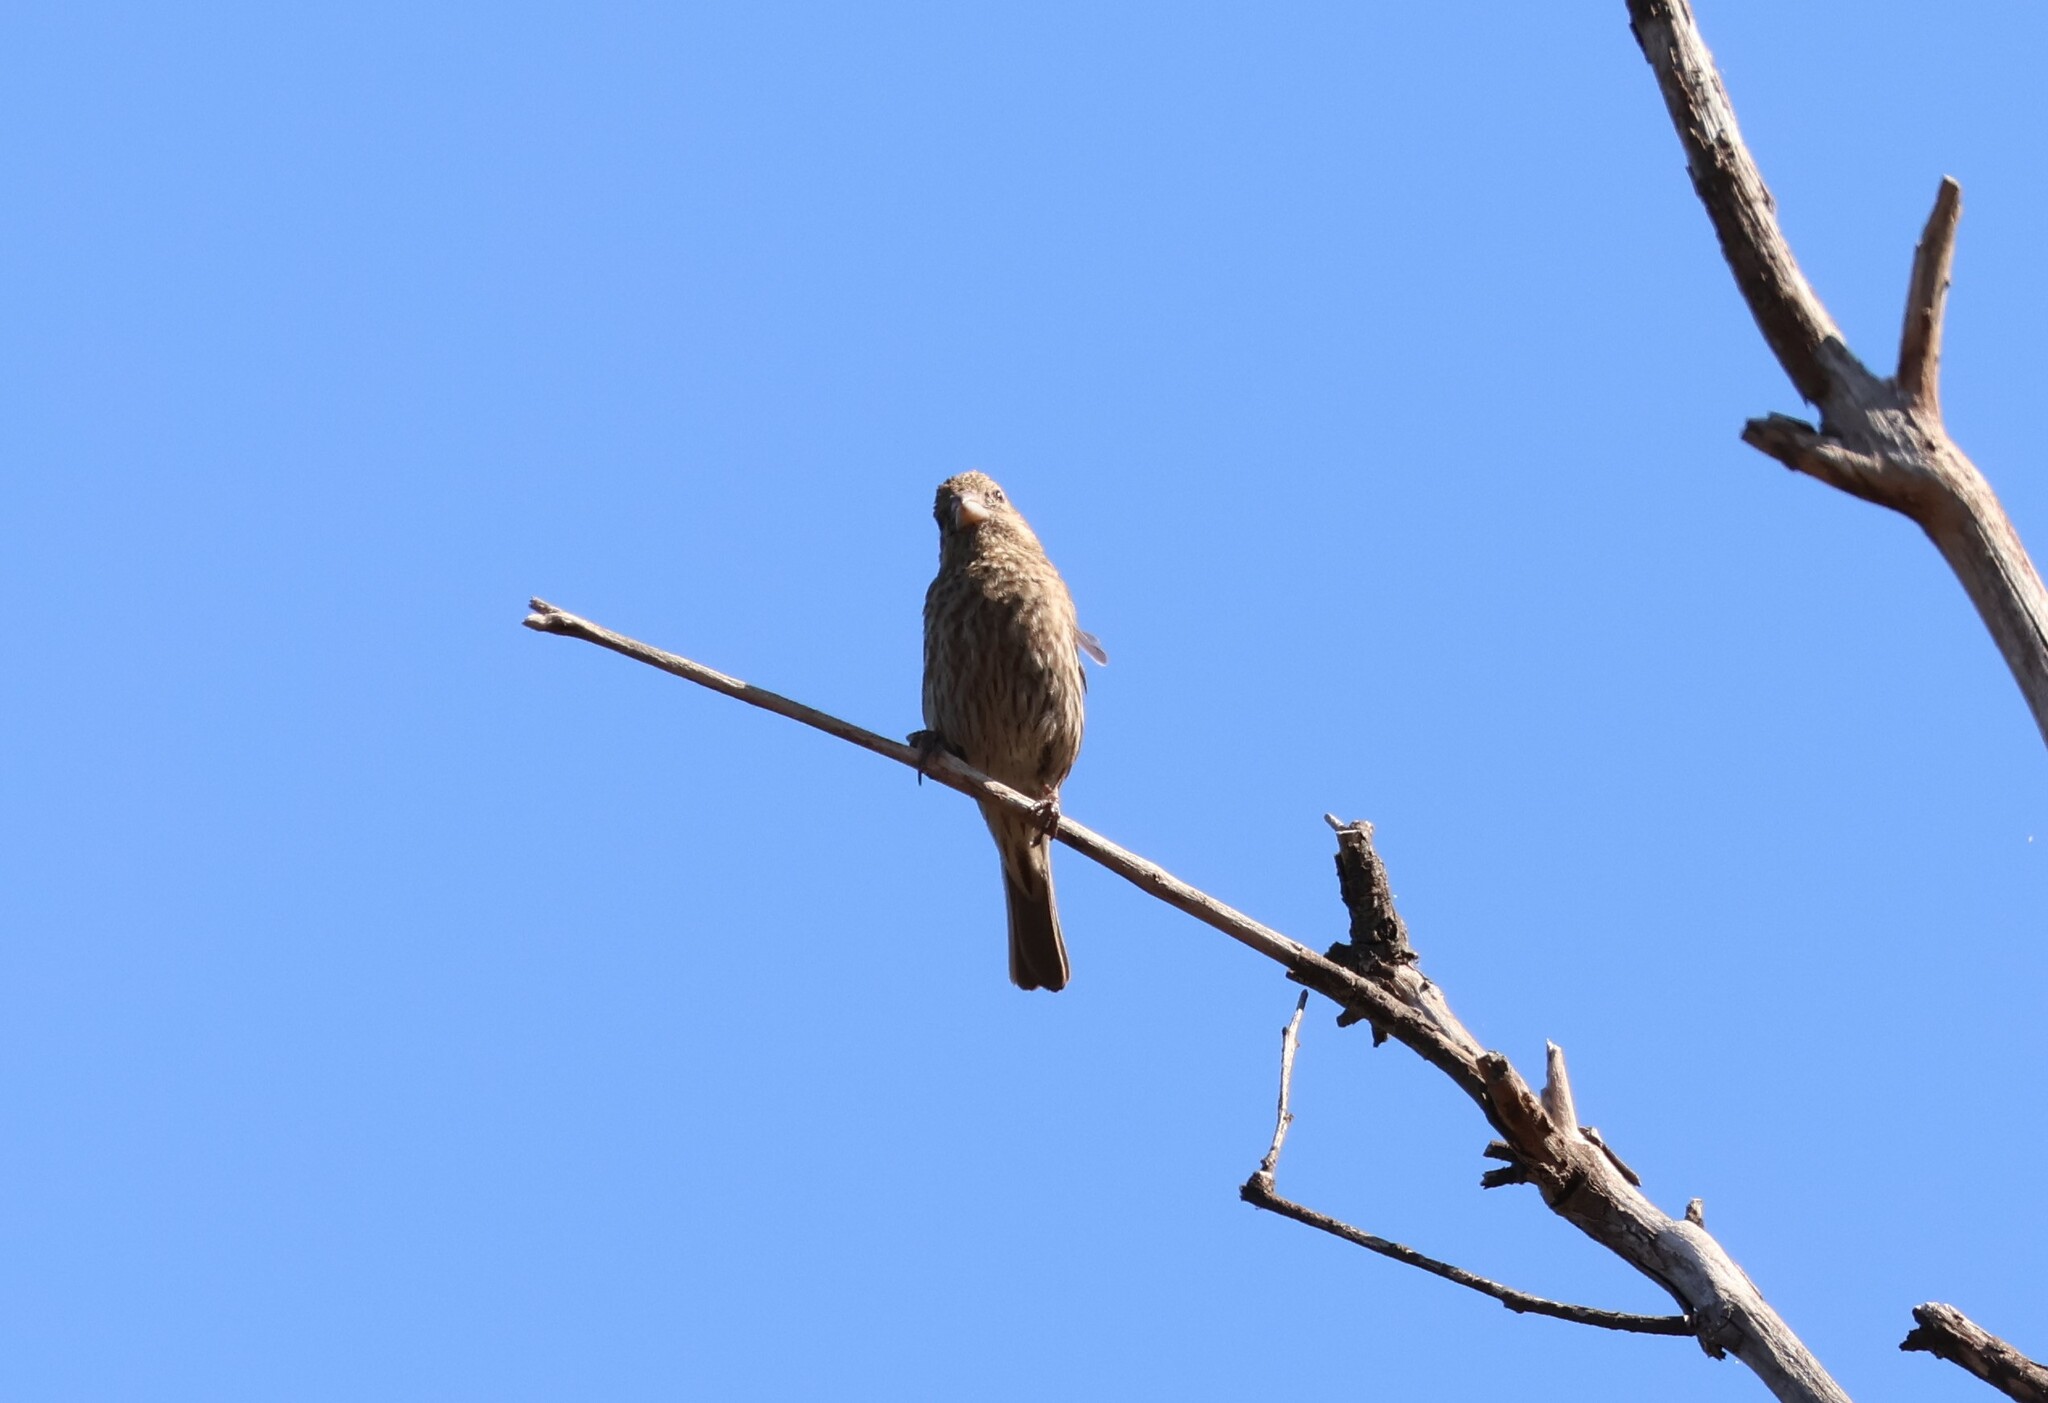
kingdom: Animalia
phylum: Chordata
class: Aves
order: Passeriformes
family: Fringillidae
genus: Haemorhous
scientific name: Haemorhous mexicanus
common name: House finch
